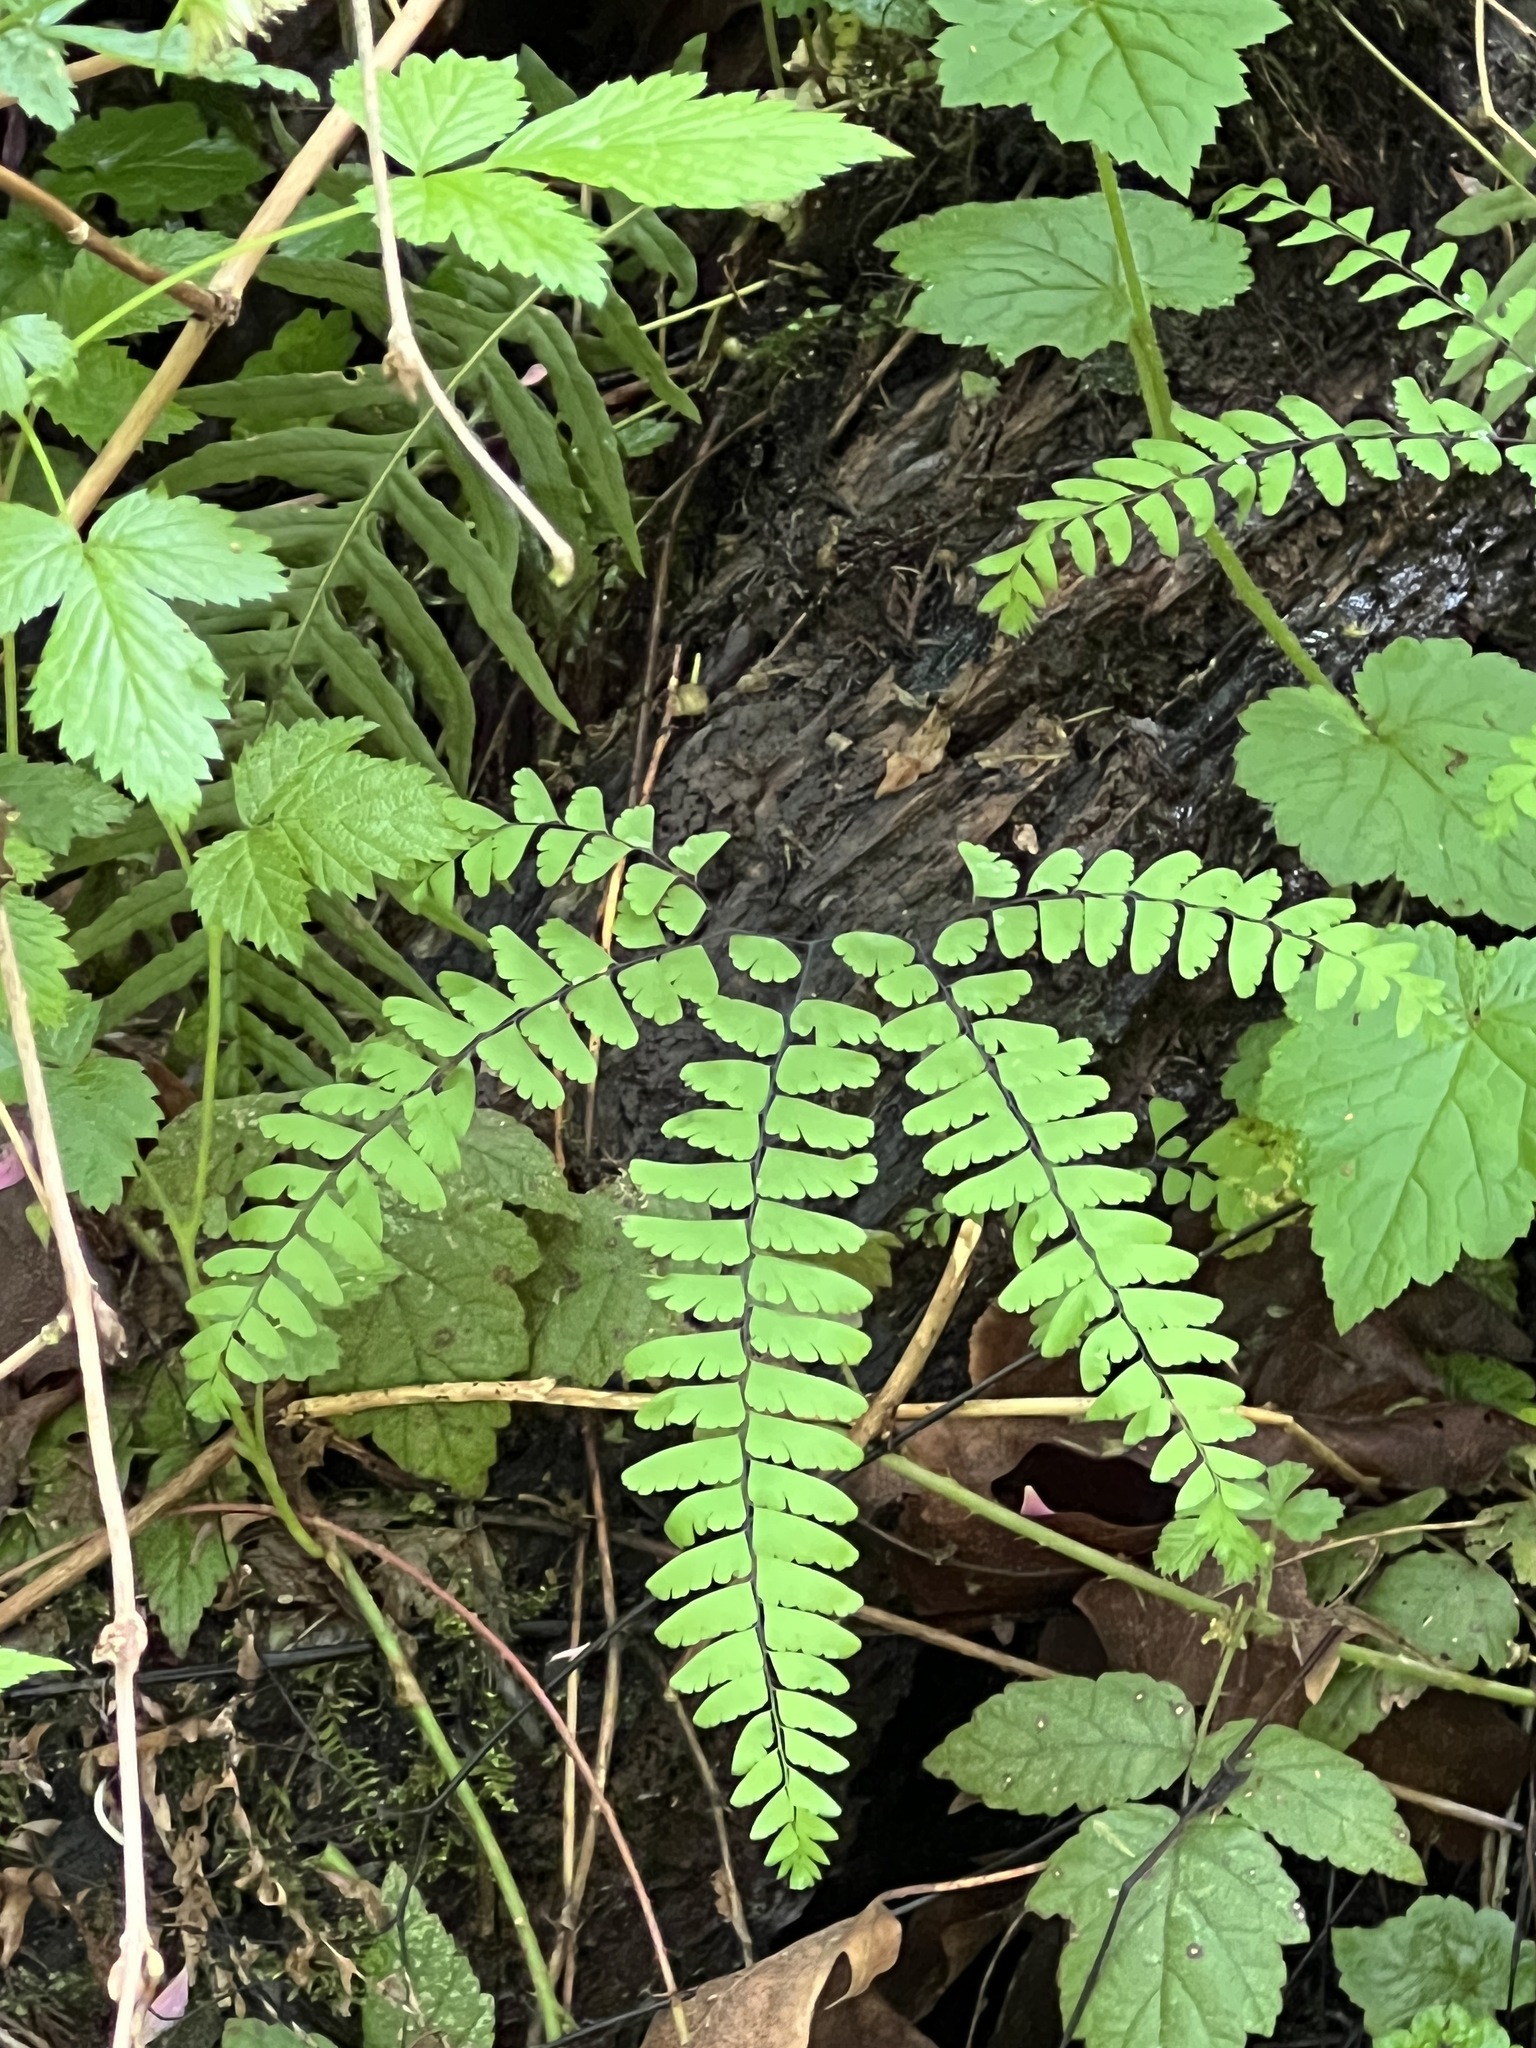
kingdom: Plantae
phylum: Tracheophyta
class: Polypodiopsida
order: Polypodiales
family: Pteridaceae
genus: Adiantum
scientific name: Adiantum aleuticum
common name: Aleutian maidenhair fern
